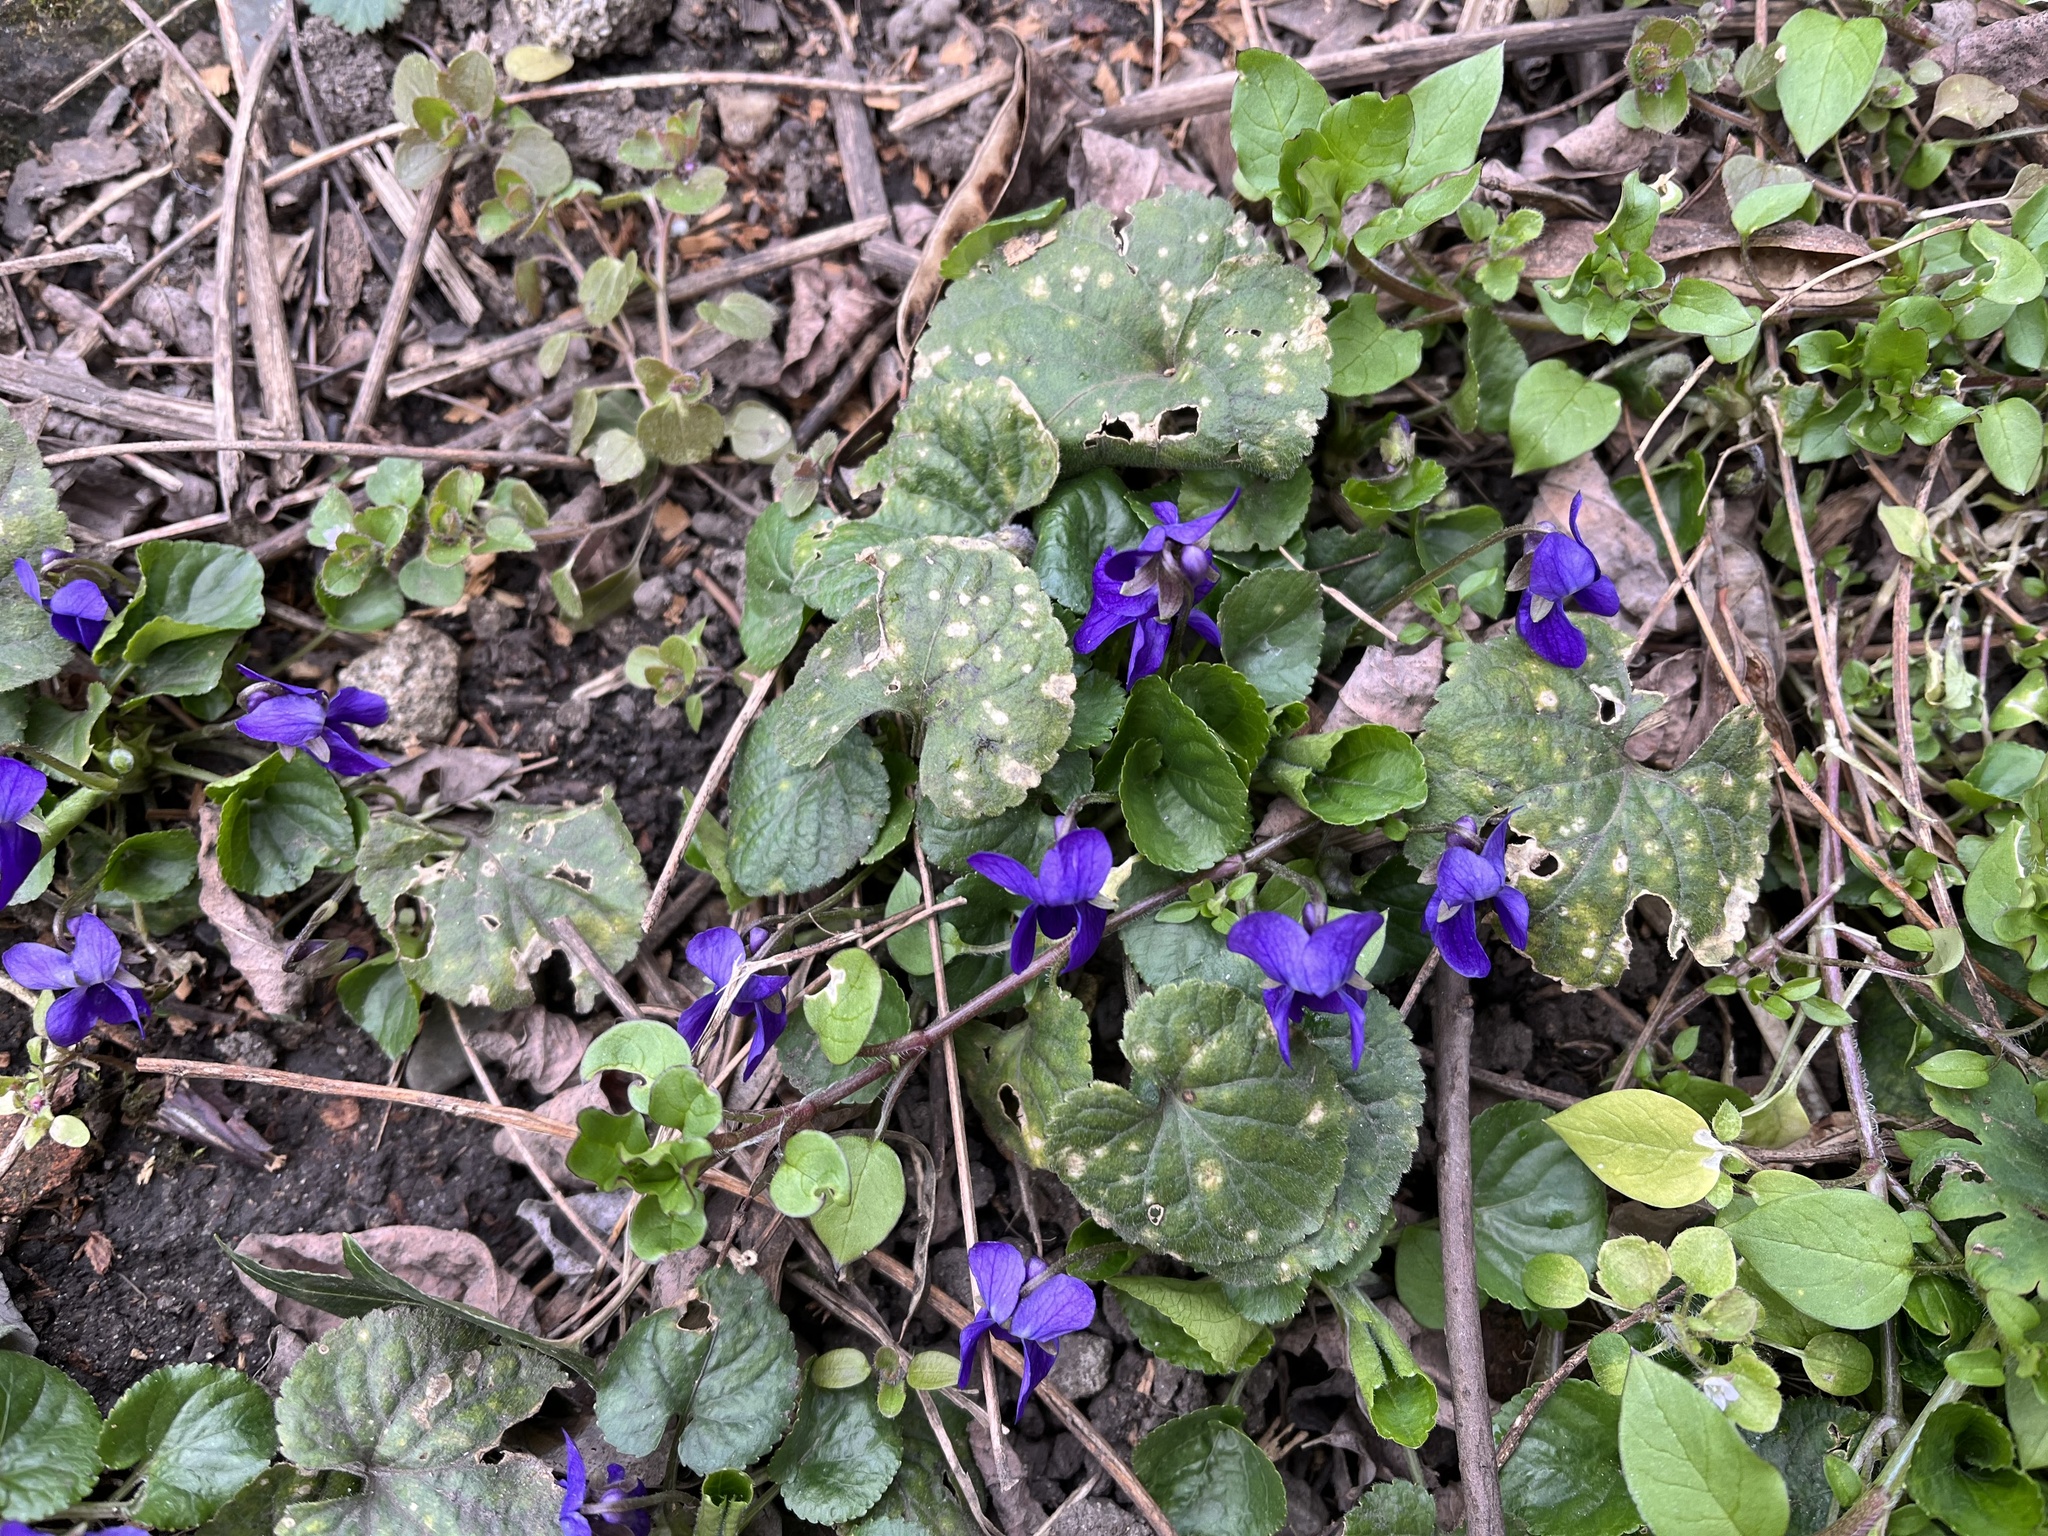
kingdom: Plantae
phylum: Tracheophyta
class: Magnoliopsida
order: Malpighiales
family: Violaceae
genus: Viola
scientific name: Viola odorata
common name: Sweet violet
